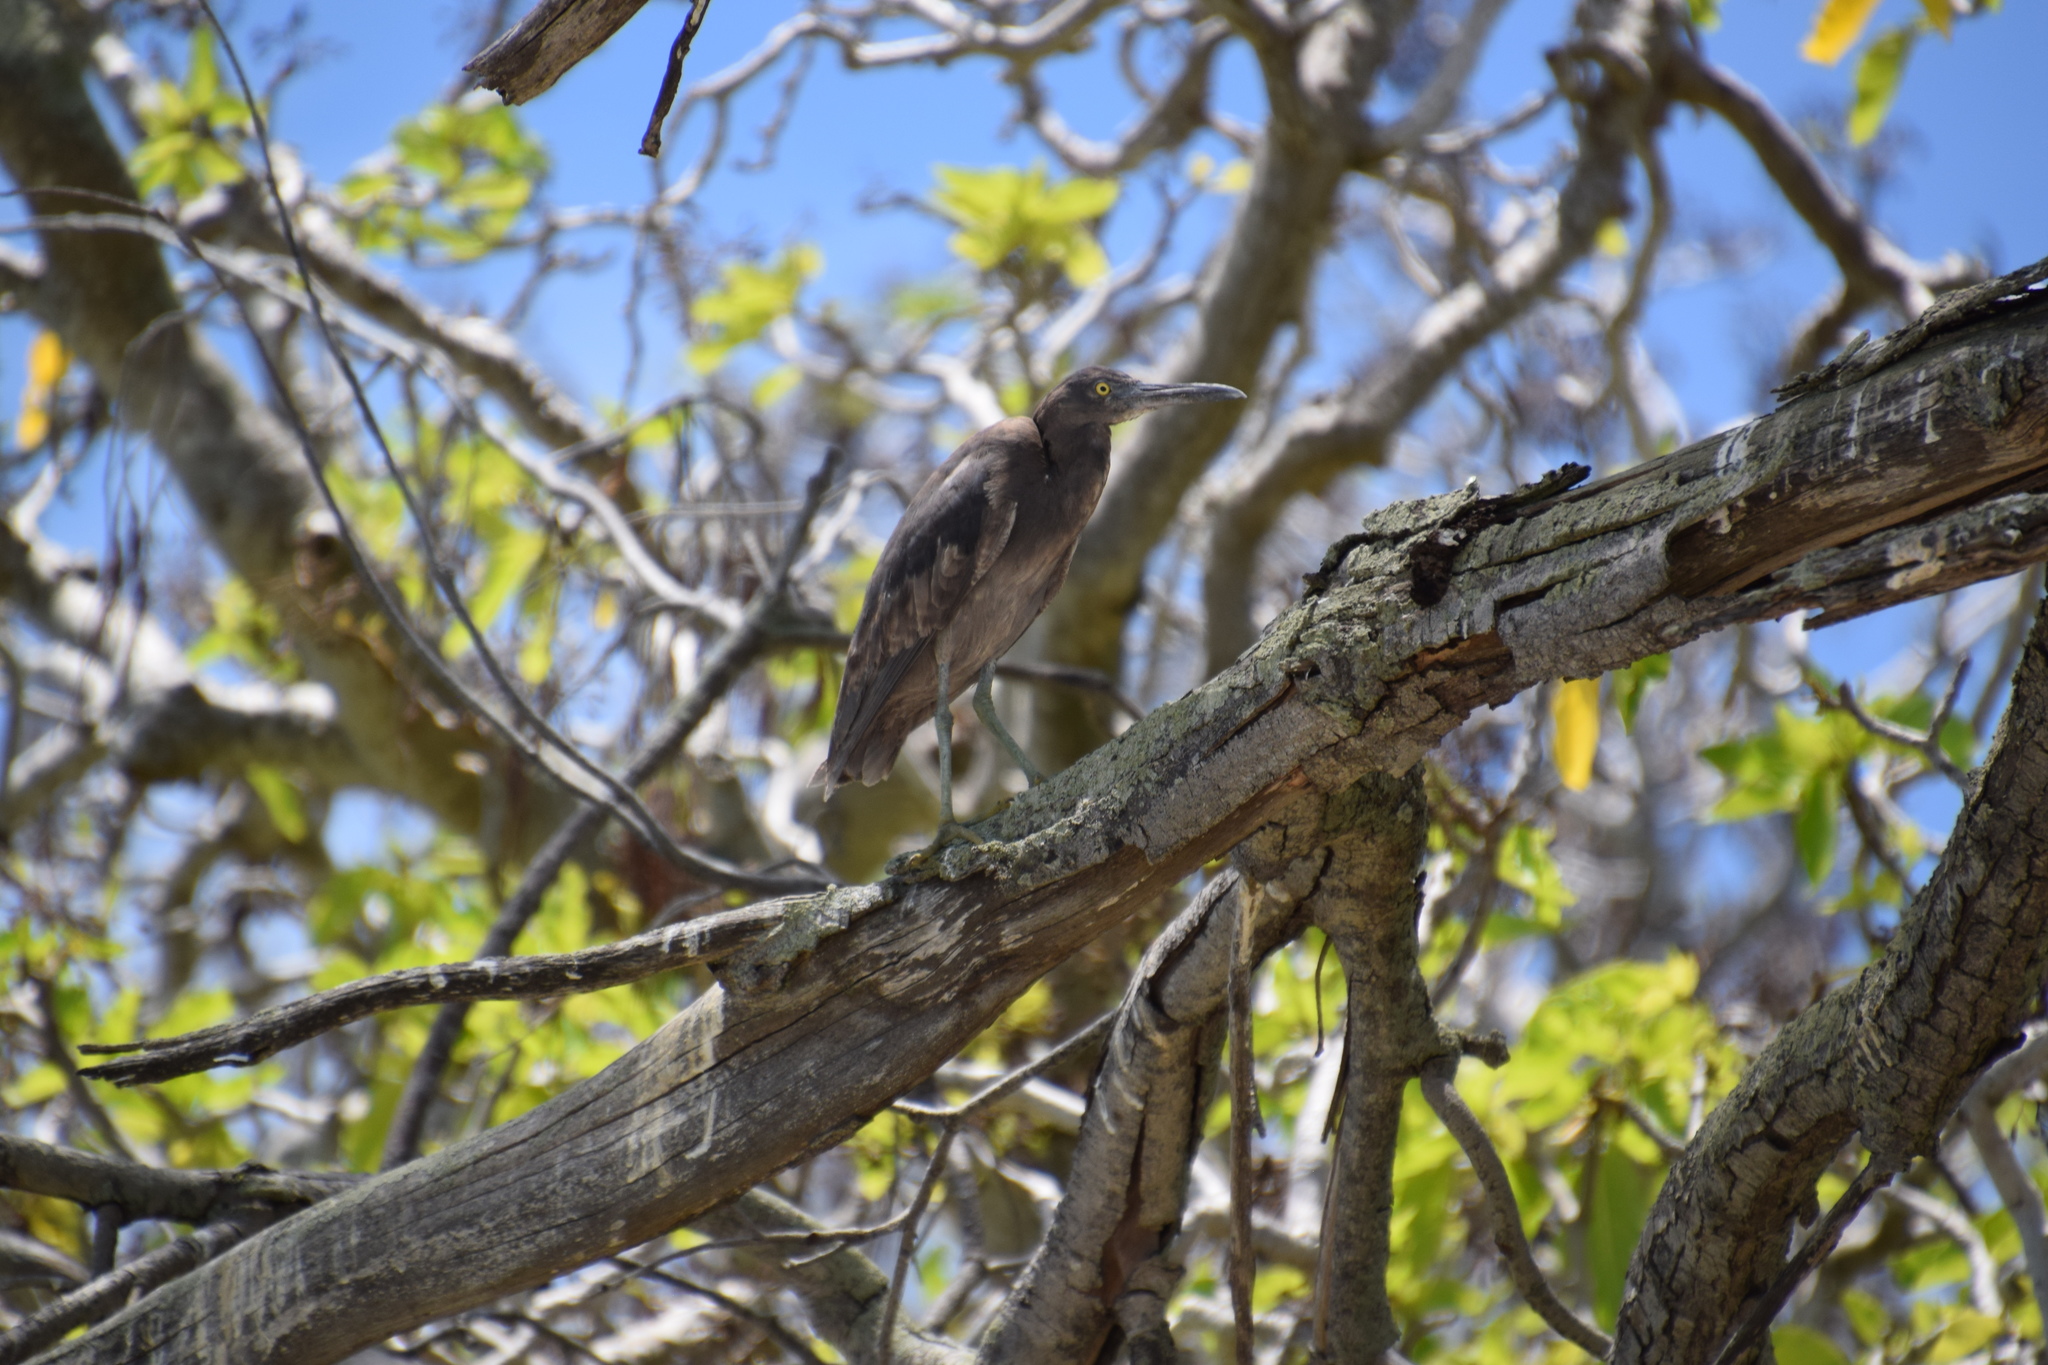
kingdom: Animalia
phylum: Chordata
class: Aves
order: Pelecaniformes
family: Ardeidae
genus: Egretta
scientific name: Egretta sacra
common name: Pacific reef heron
